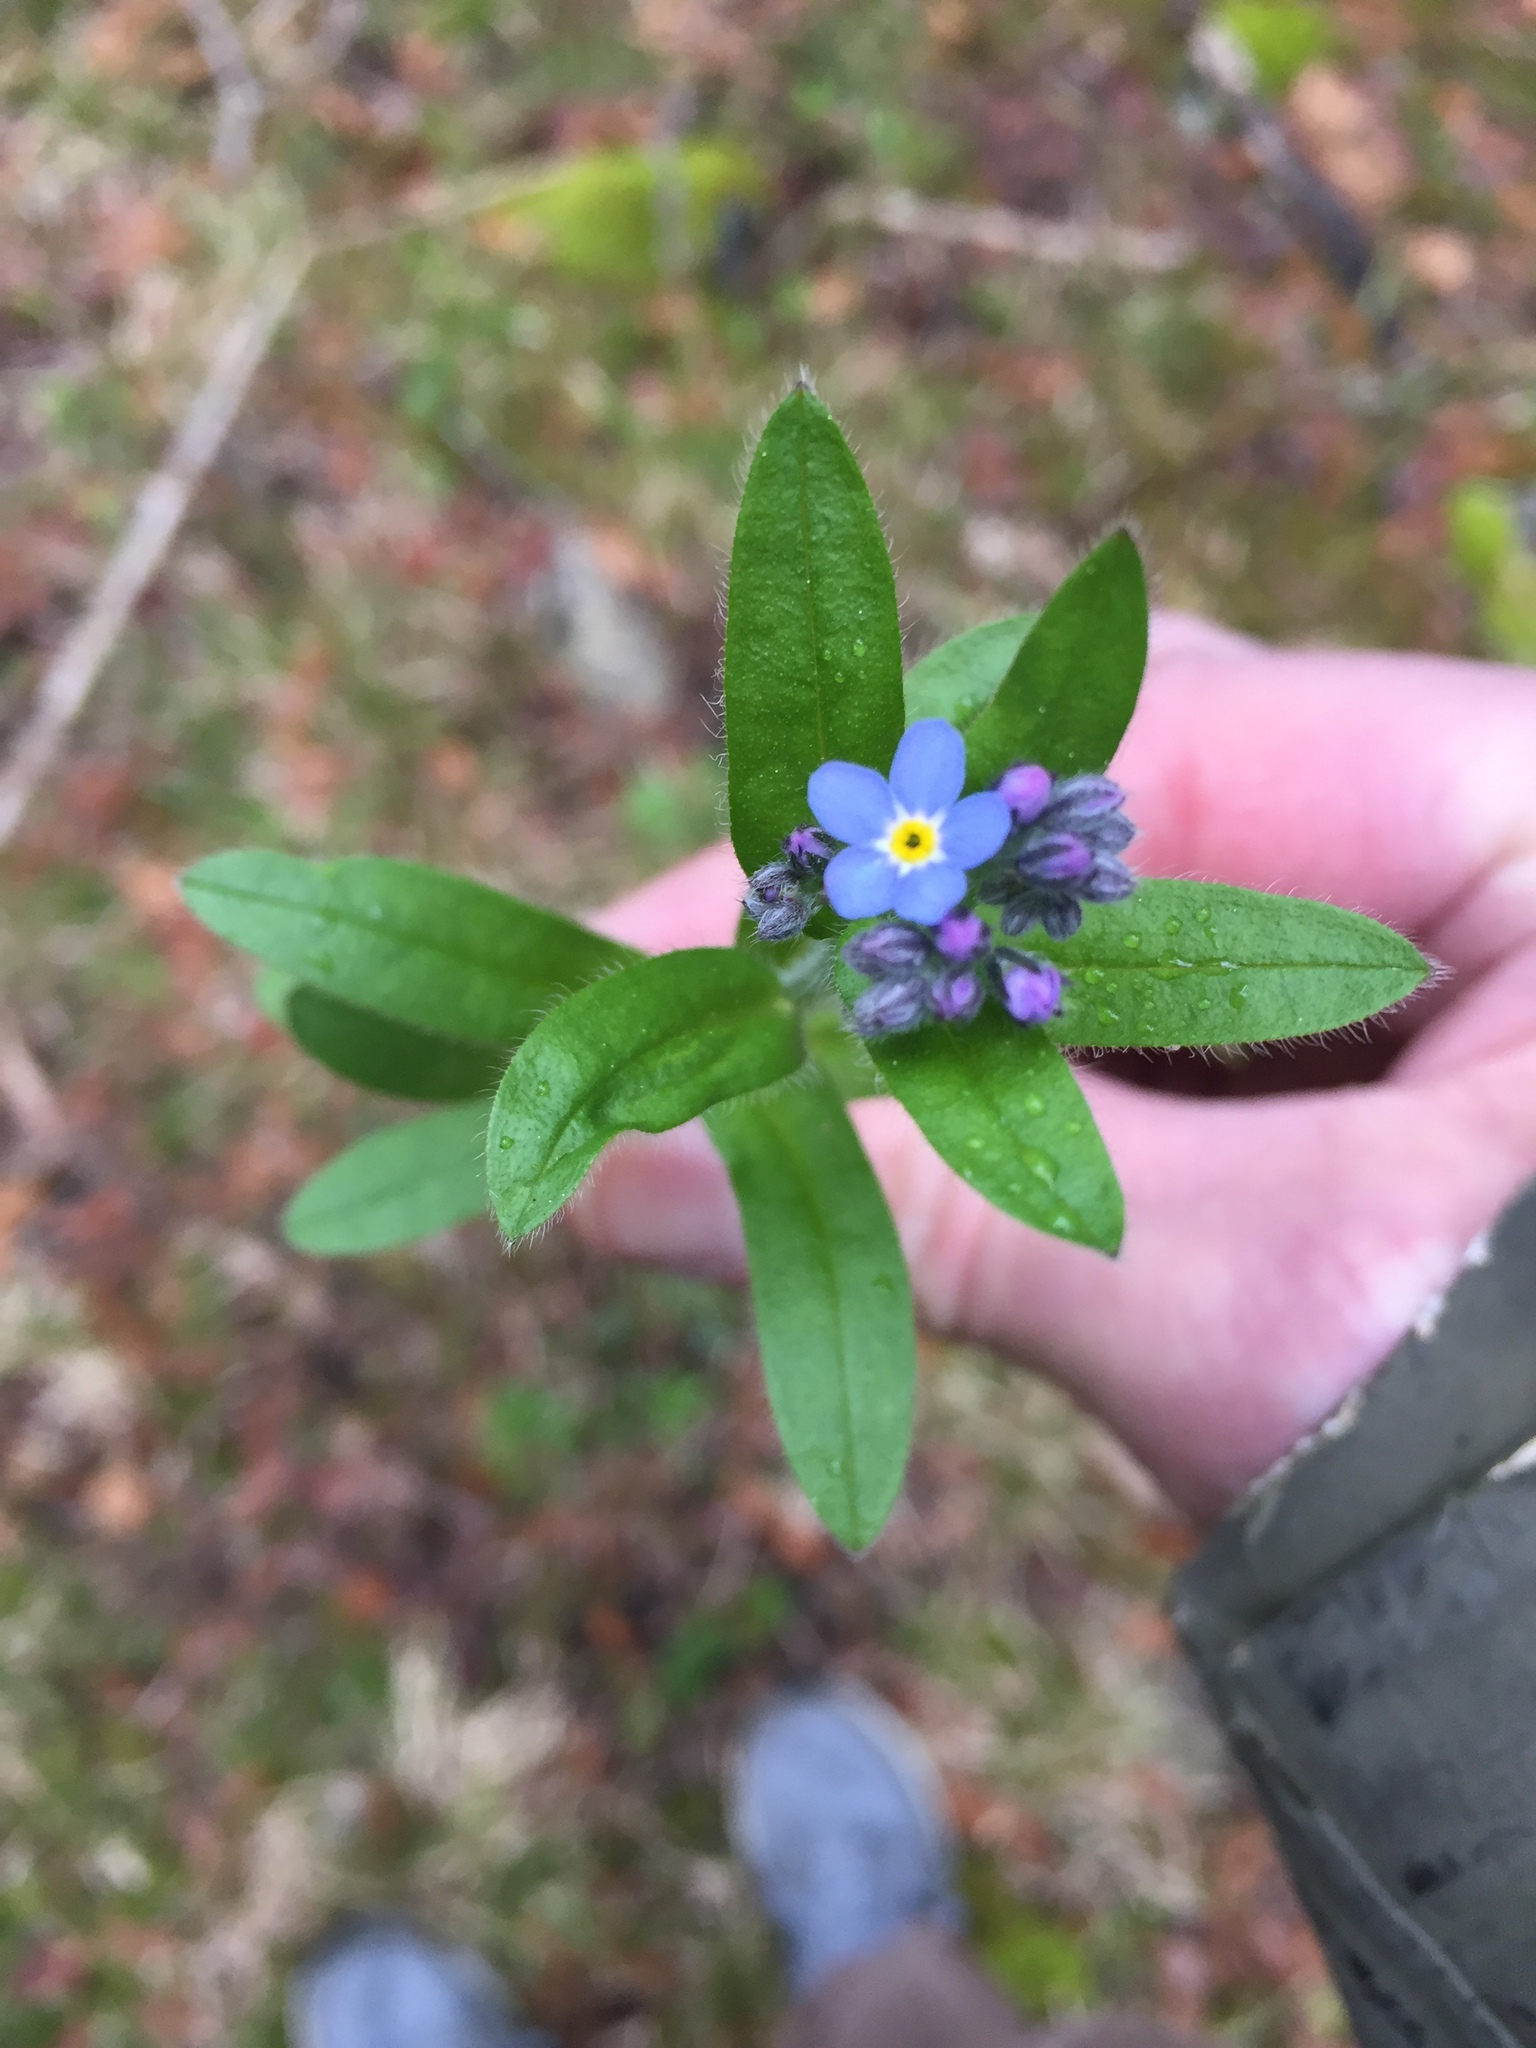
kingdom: Plantae
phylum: Tracheophyta
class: Magnoliopsida
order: Boraginales
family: Boraginaceae
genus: Myosotis
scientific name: Myosotis sylvatica
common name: Wood forget-me-not
